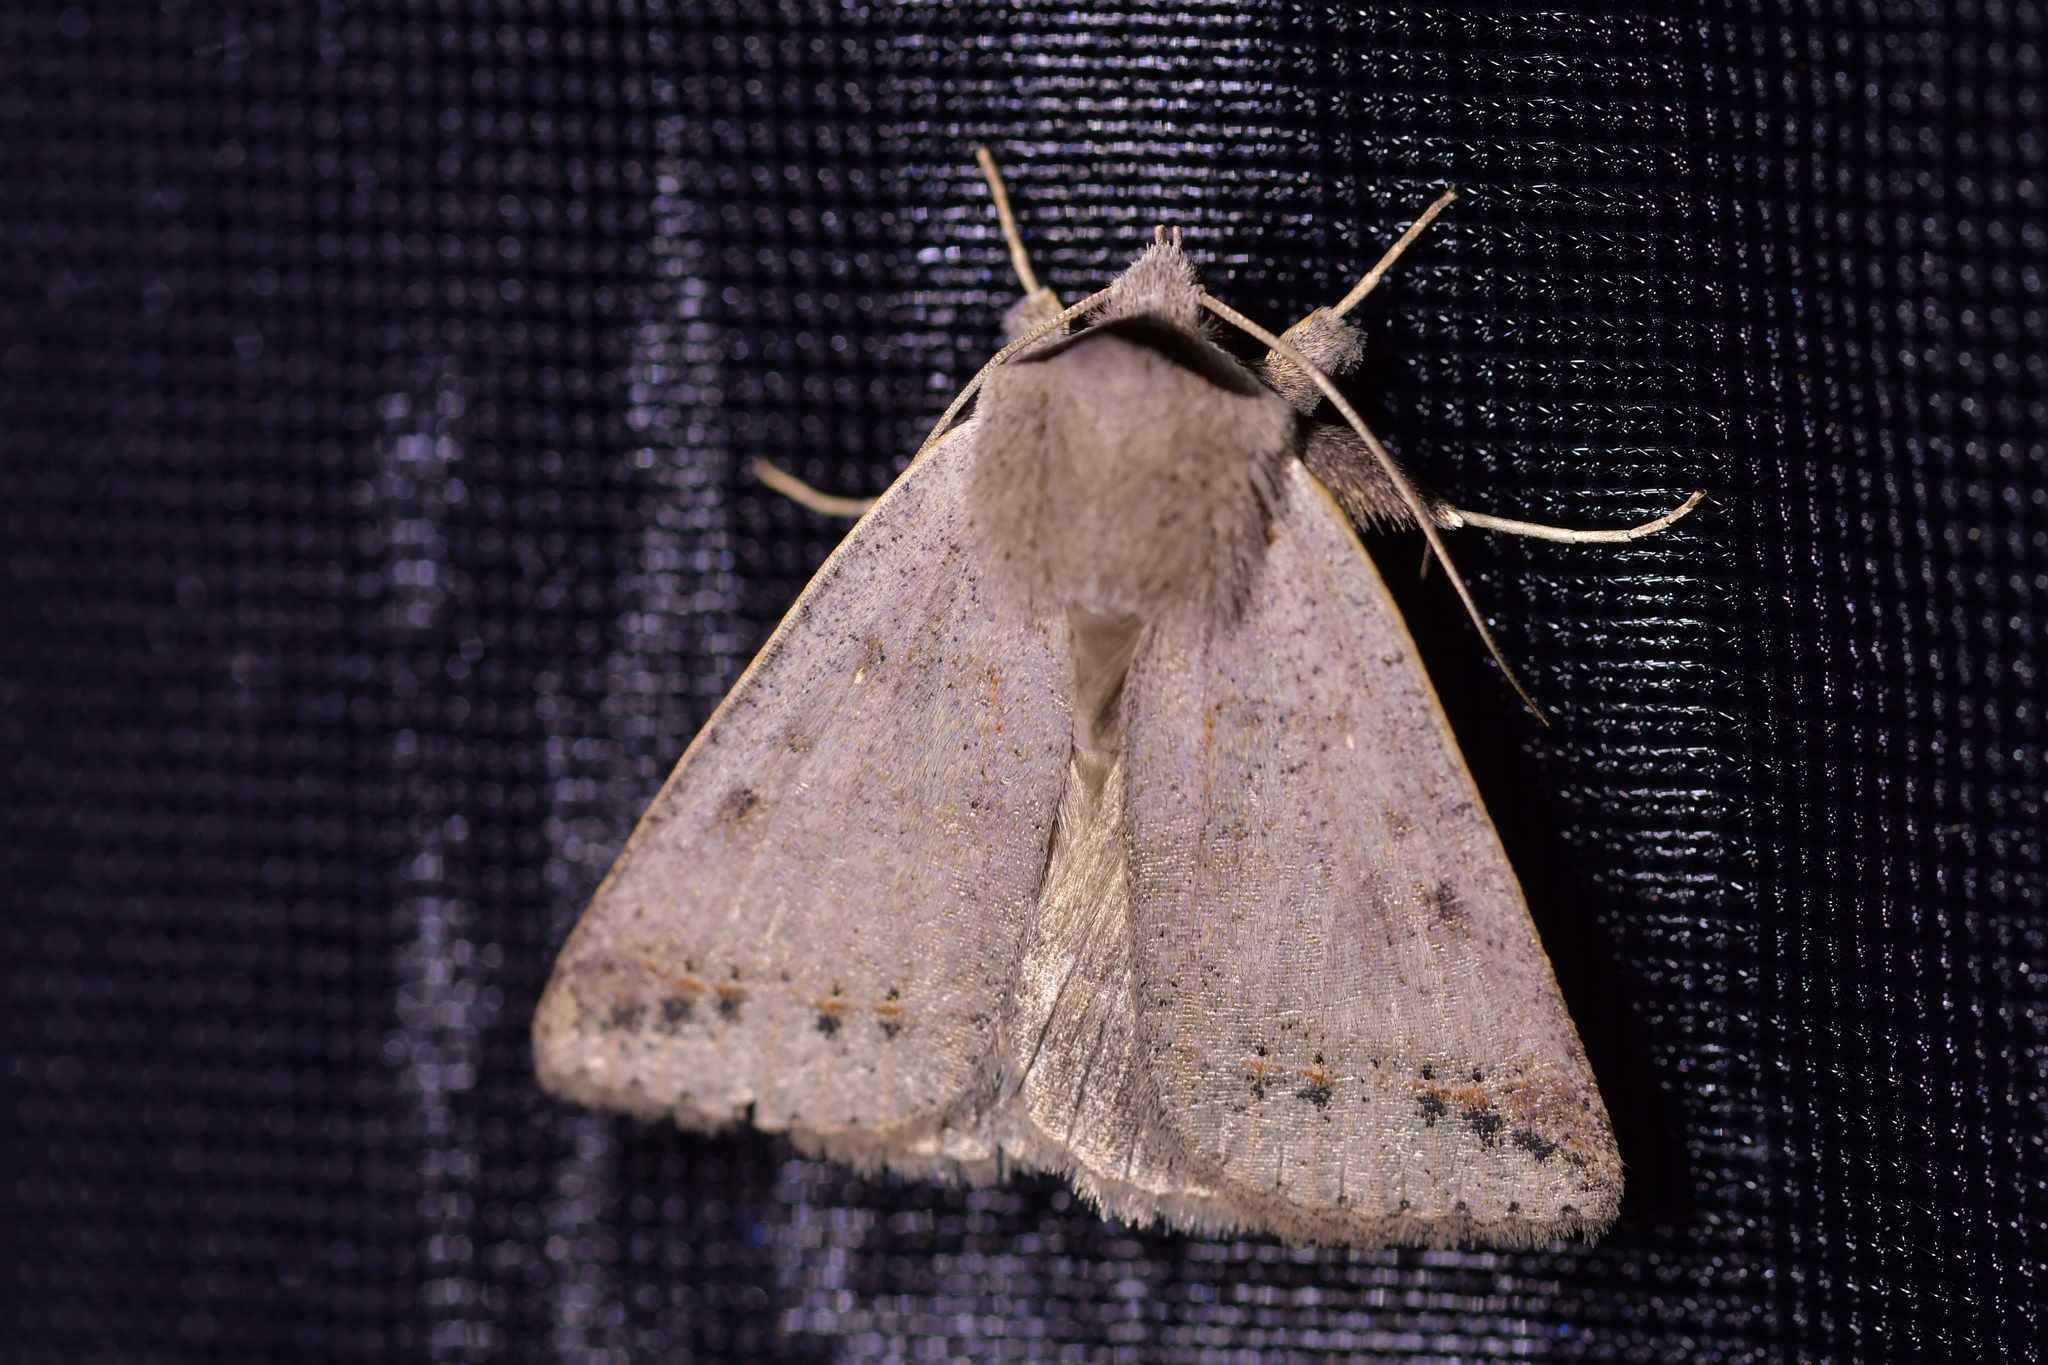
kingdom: Animalia
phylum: Arthropoda
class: Insecta
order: Lepidoptera
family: Erebidae
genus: Pantydia
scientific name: Pantydia sparsa
